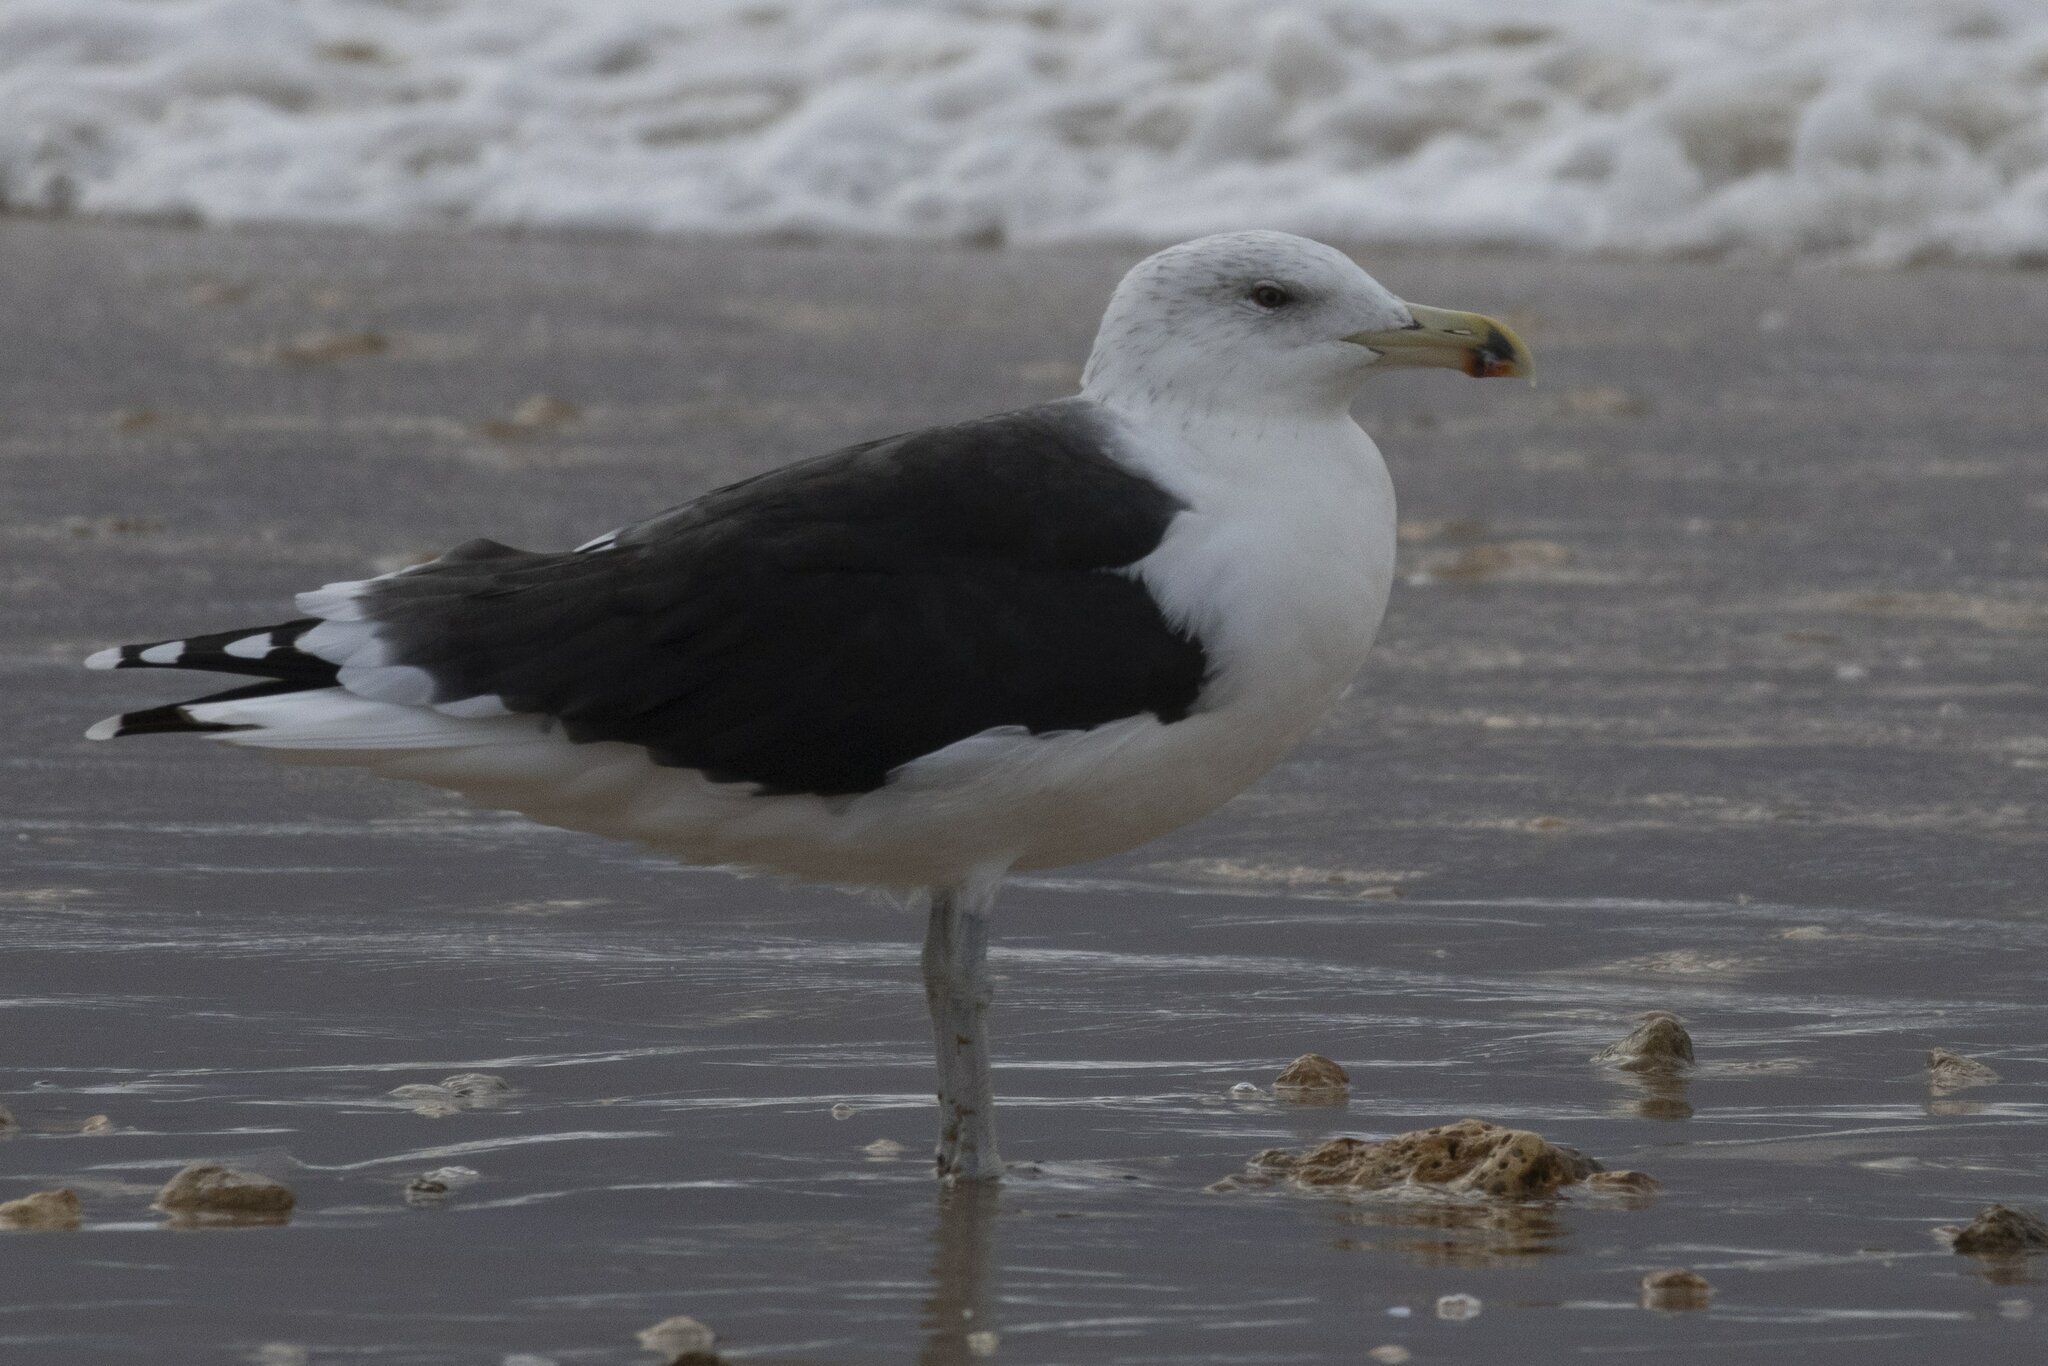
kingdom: Animalia
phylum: Chordata
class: Aves
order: Charadriiformes
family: Laridae
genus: Larus
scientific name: Larus marinus
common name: Great black-backed gull
